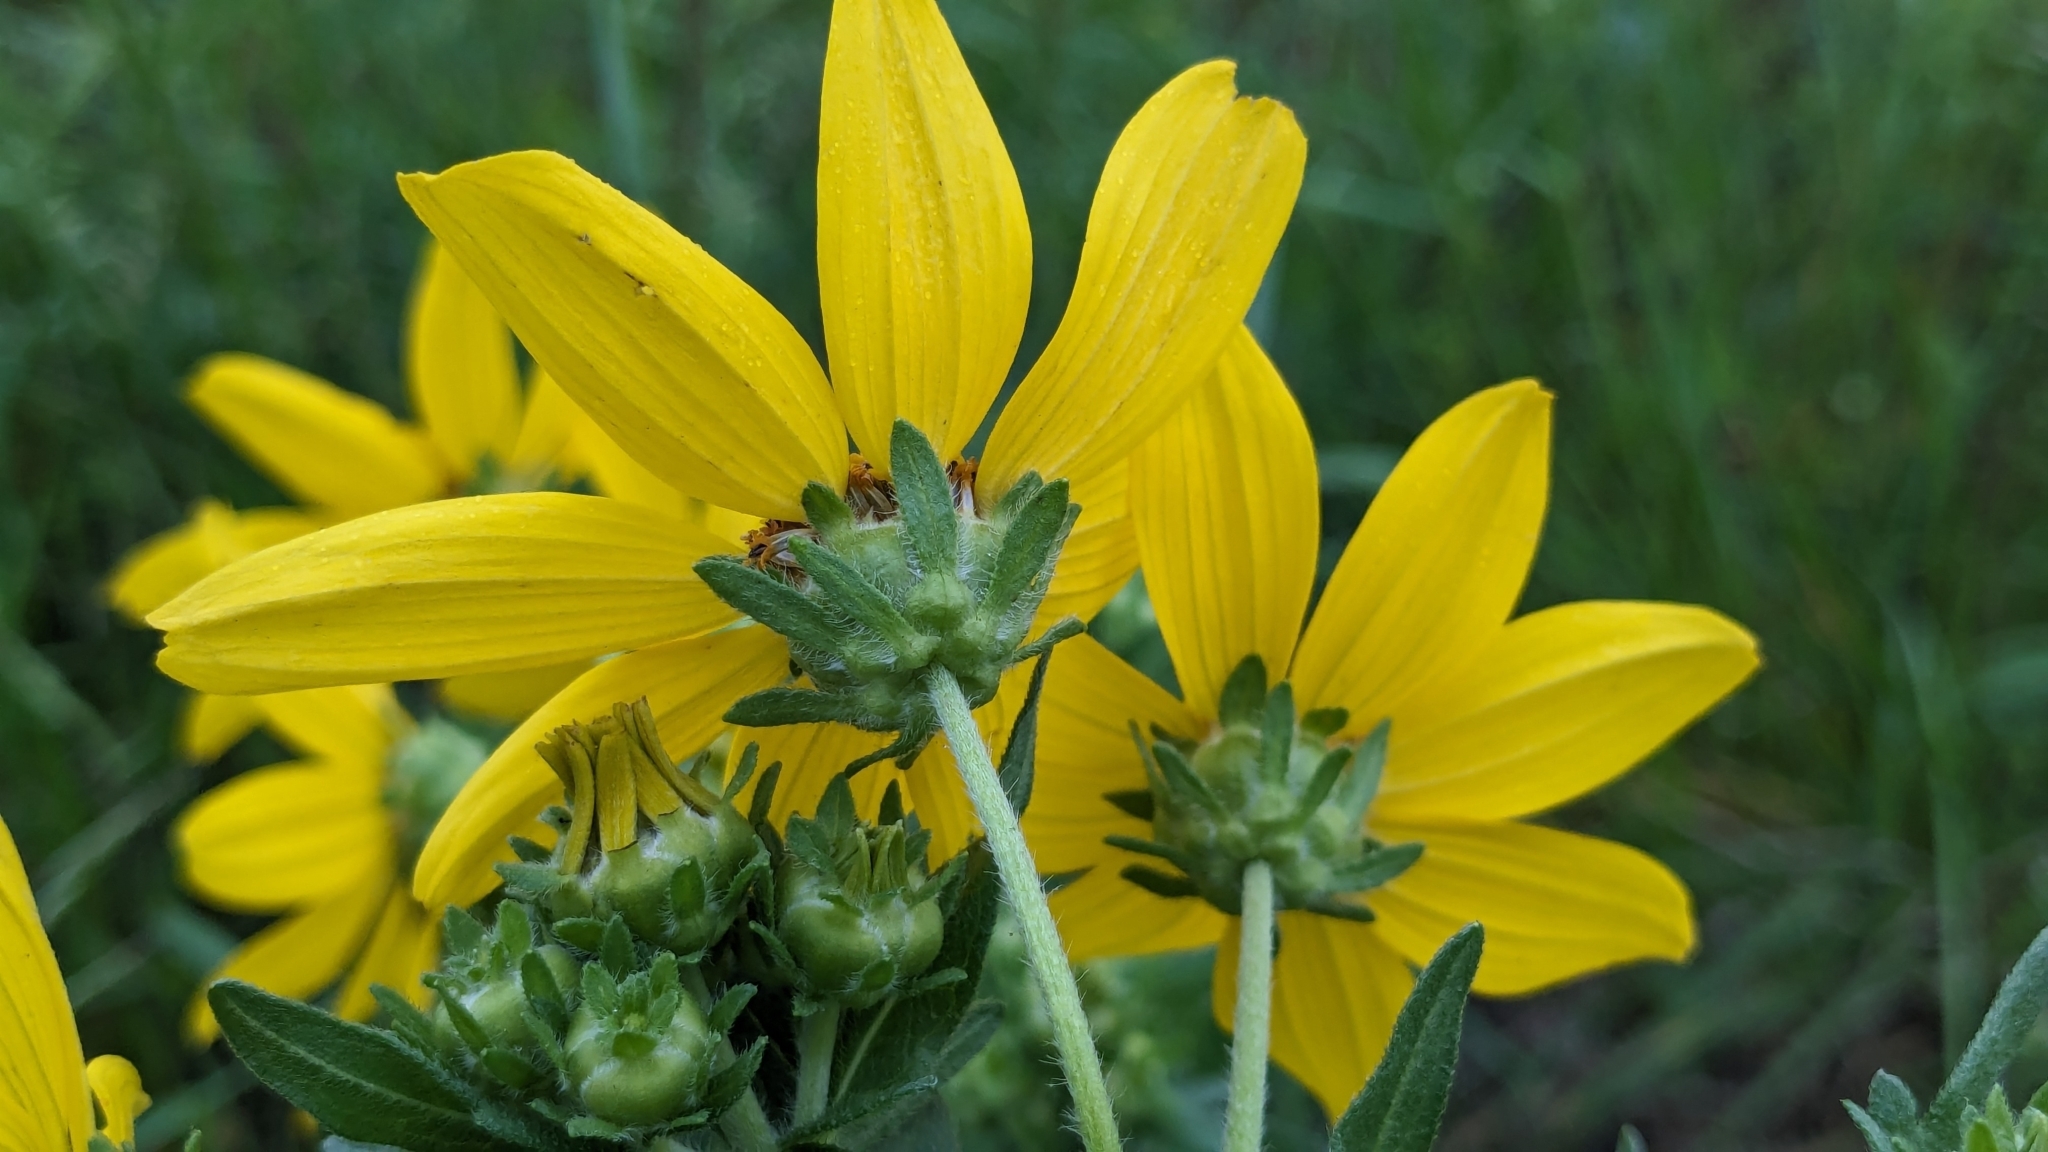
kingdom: Plantae
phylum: Tracheophyta
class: Magnoliopsida
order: Asterales
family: Asteraceae
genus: Engelmannia
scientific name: Engelmannia peristenia
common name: Engelmann's daisy
